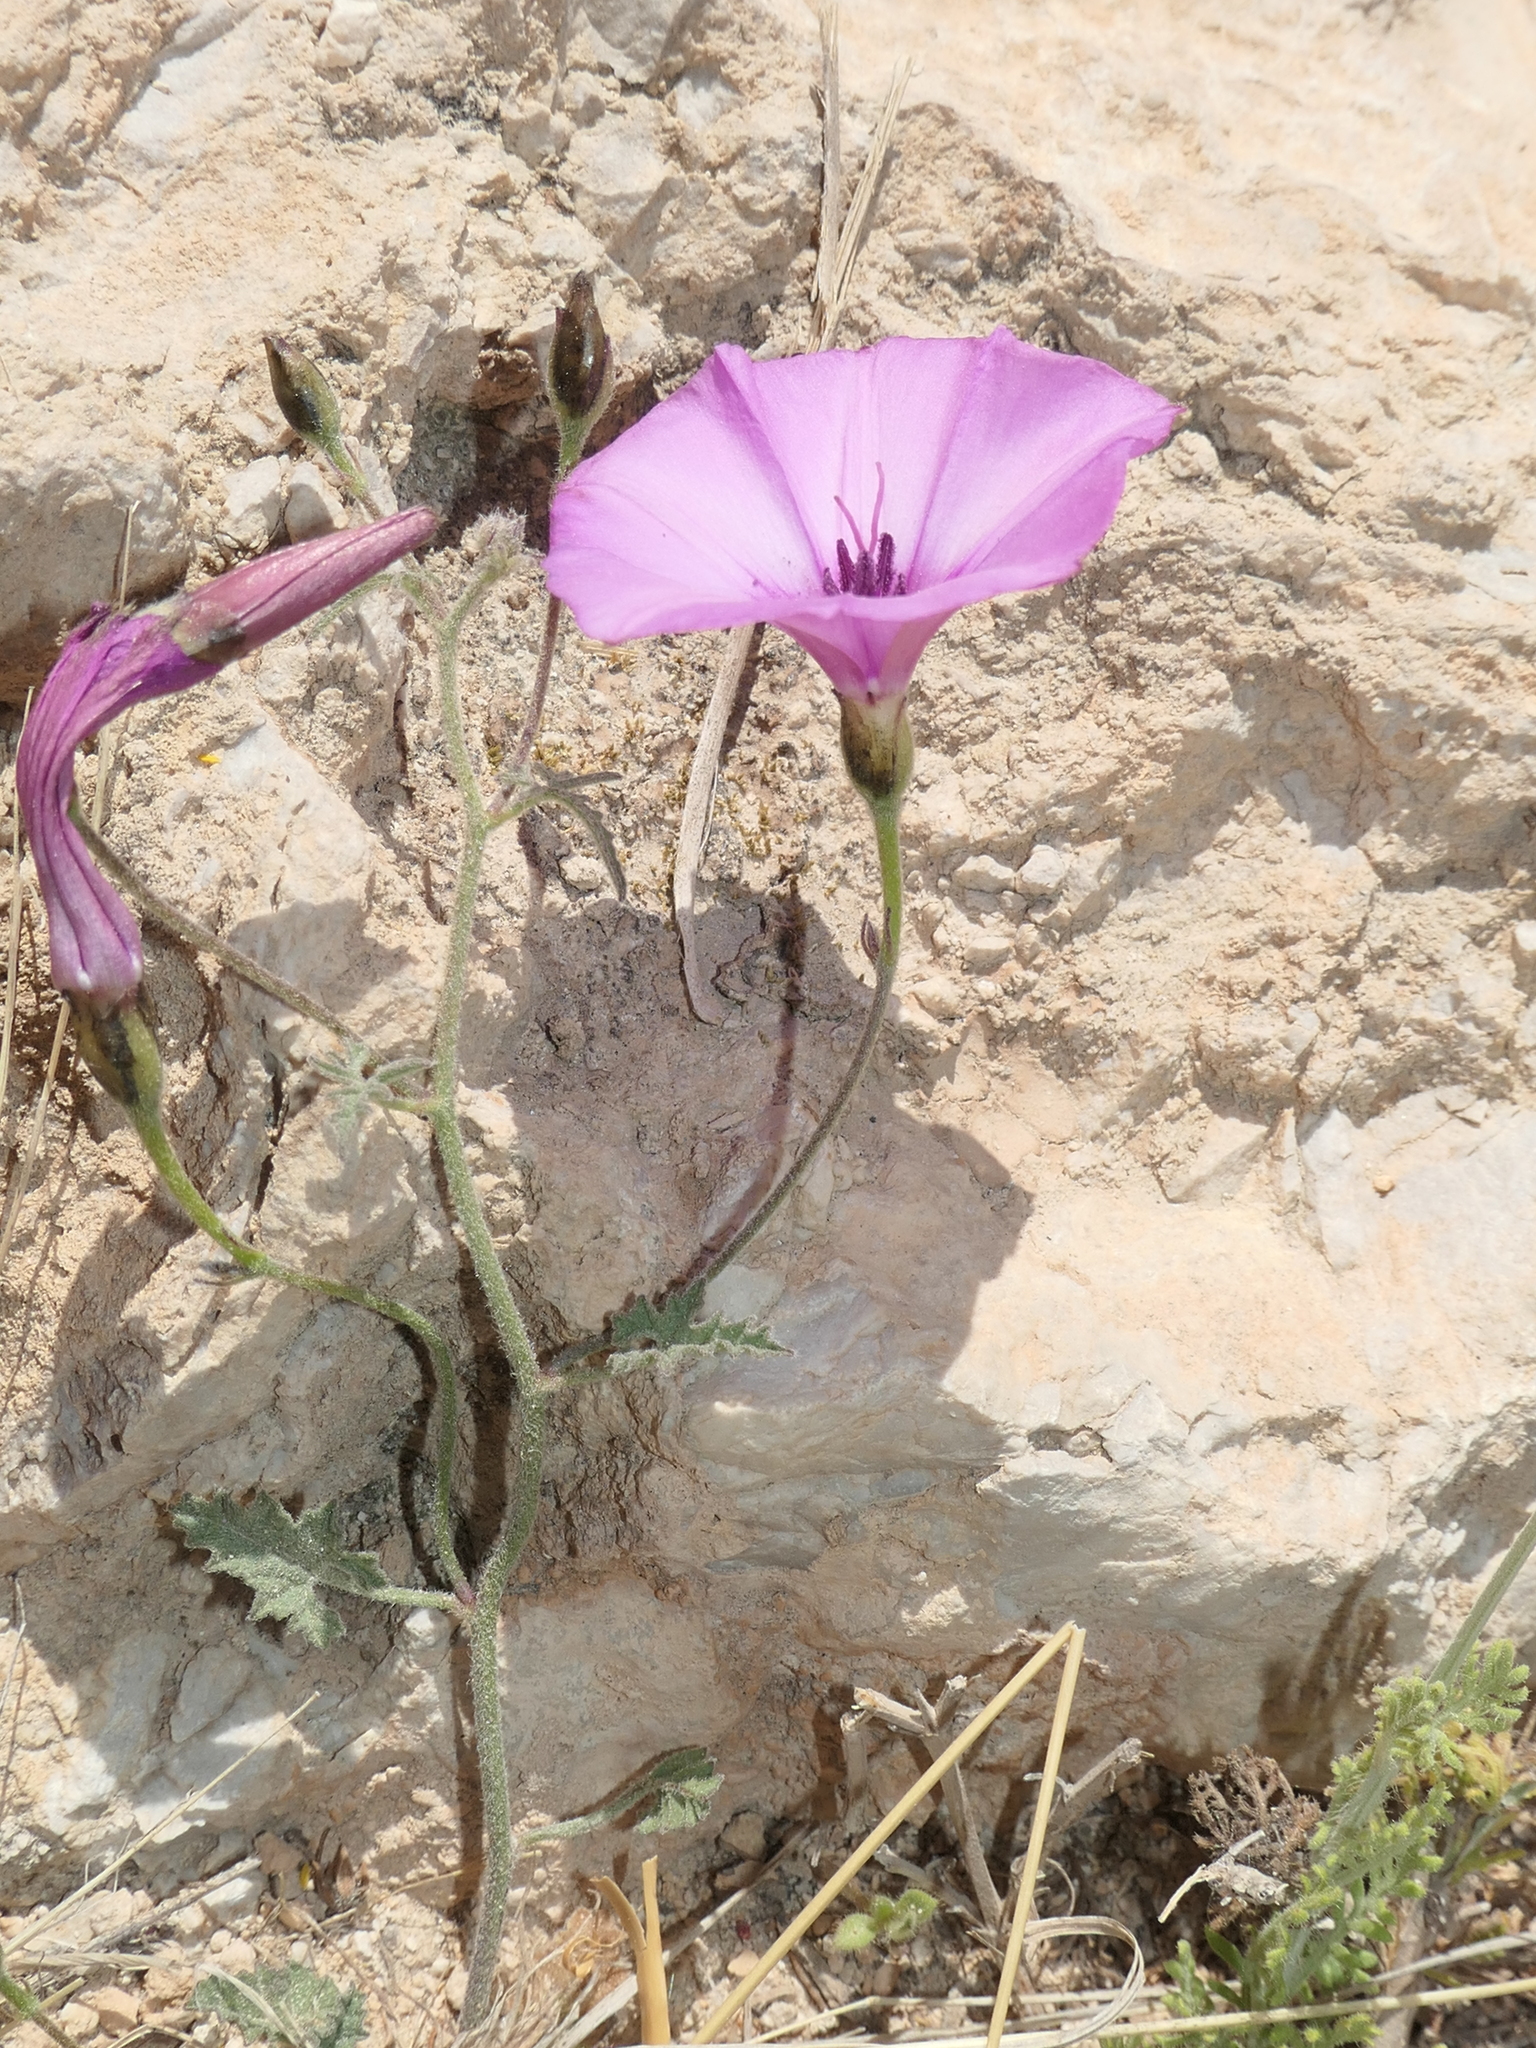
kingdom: Plantae
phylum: Tracheophyta
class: Magnoliopsida
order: Solanales
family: Convolvulaceae
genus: Convolvulus
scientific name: Convolvulus althaeoides
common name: Mallow bindweed
